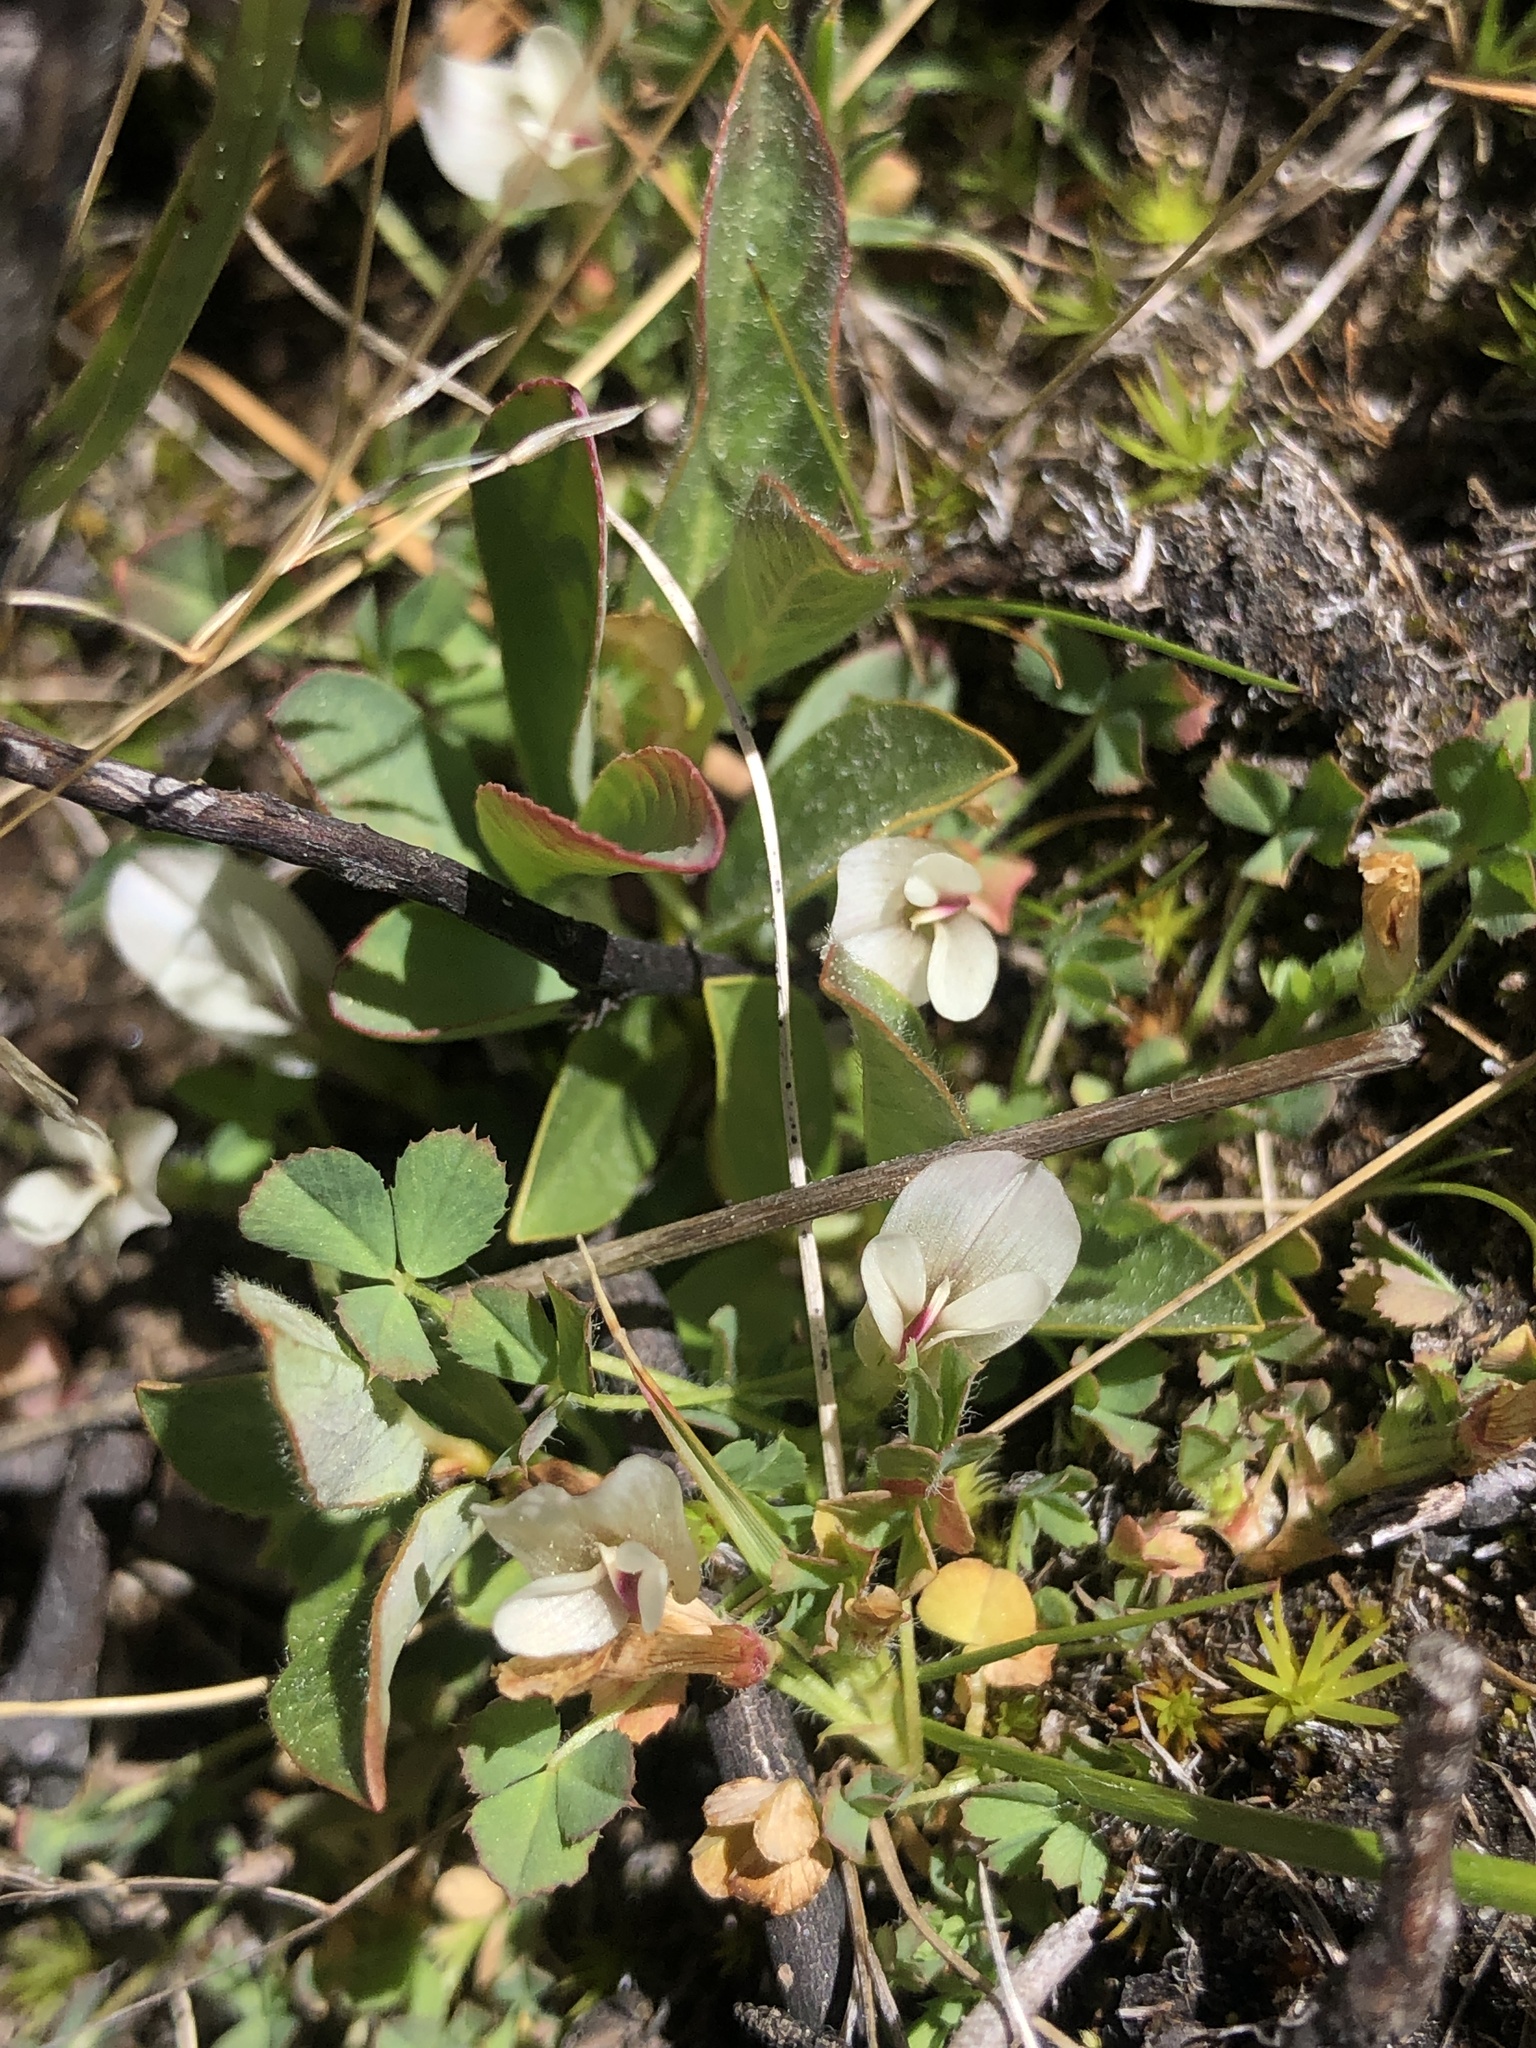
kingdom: Plantae
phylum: Tracheophyta
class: Magnoliopsida
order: Fabales
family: Fabaceae
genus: Trifolium
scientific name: Trifolium monanthum
